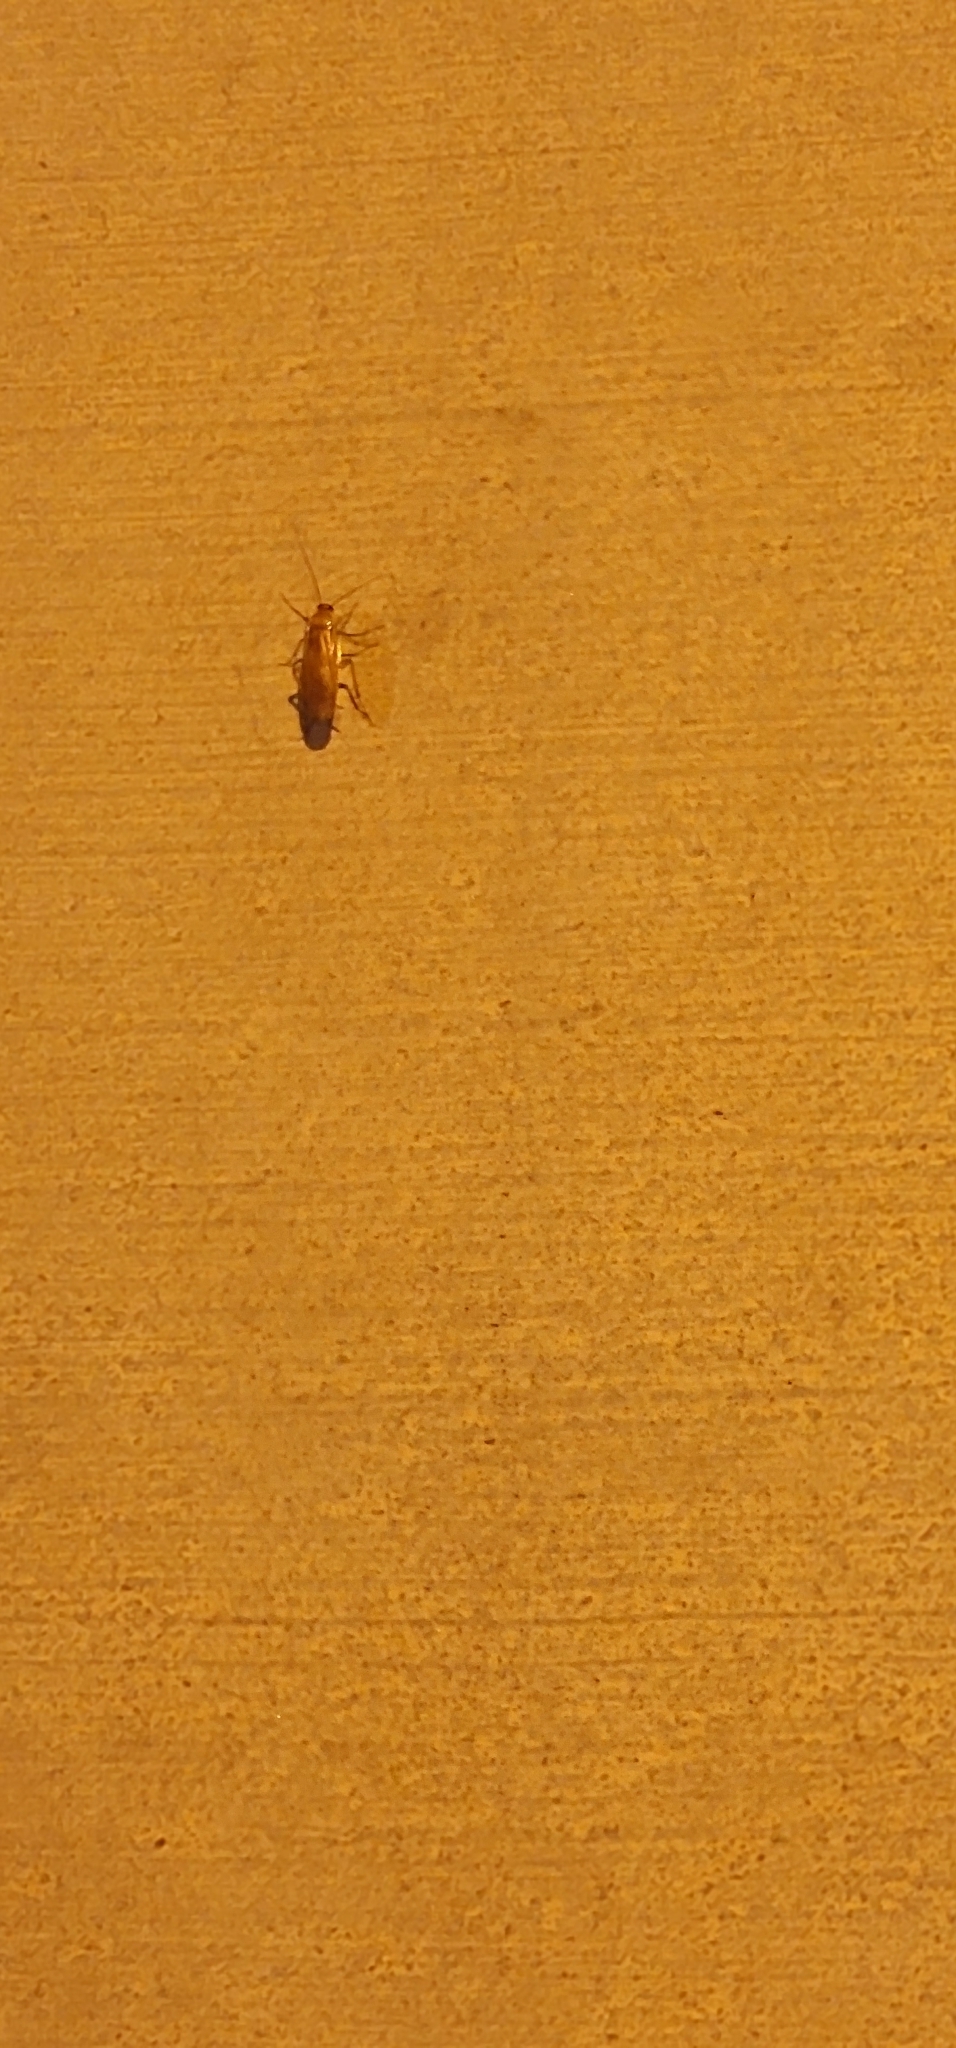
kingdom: Animalia
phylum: Arthropoda
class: Insecta
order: Blattodea
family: Blattidae
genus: Periplaneta
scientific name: Periplaneta lateralis
